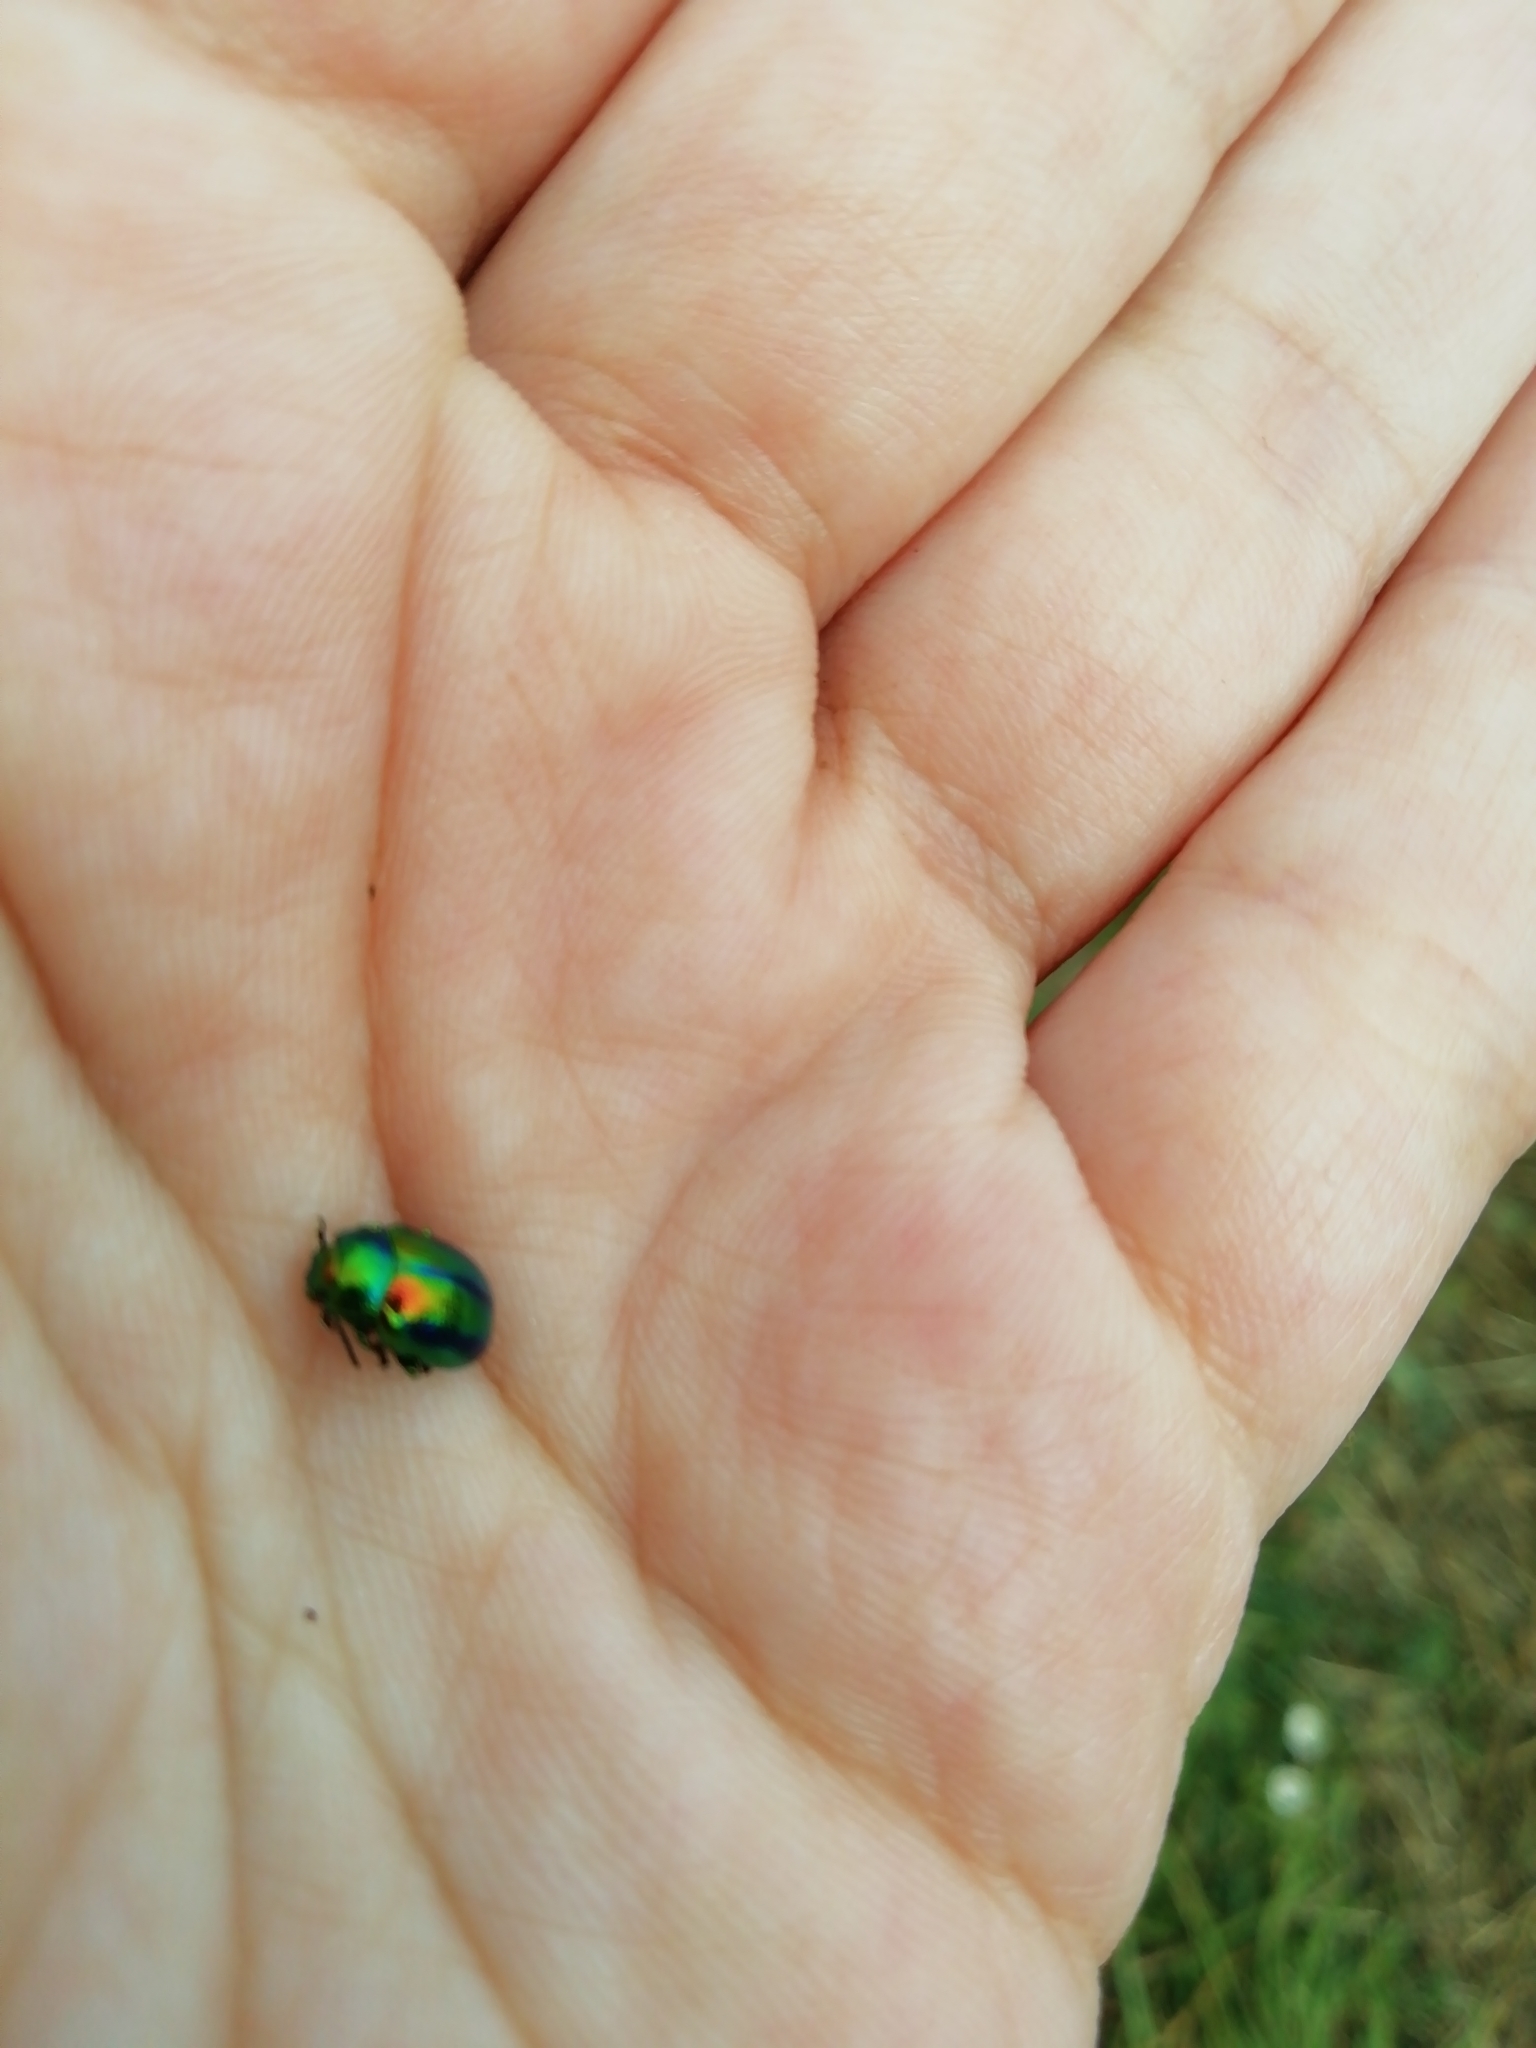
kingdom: Animalia
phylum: Arthropoda
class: Insecta
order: Coleoptera
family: Chrysomelidae
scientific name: Chrysomelidae
